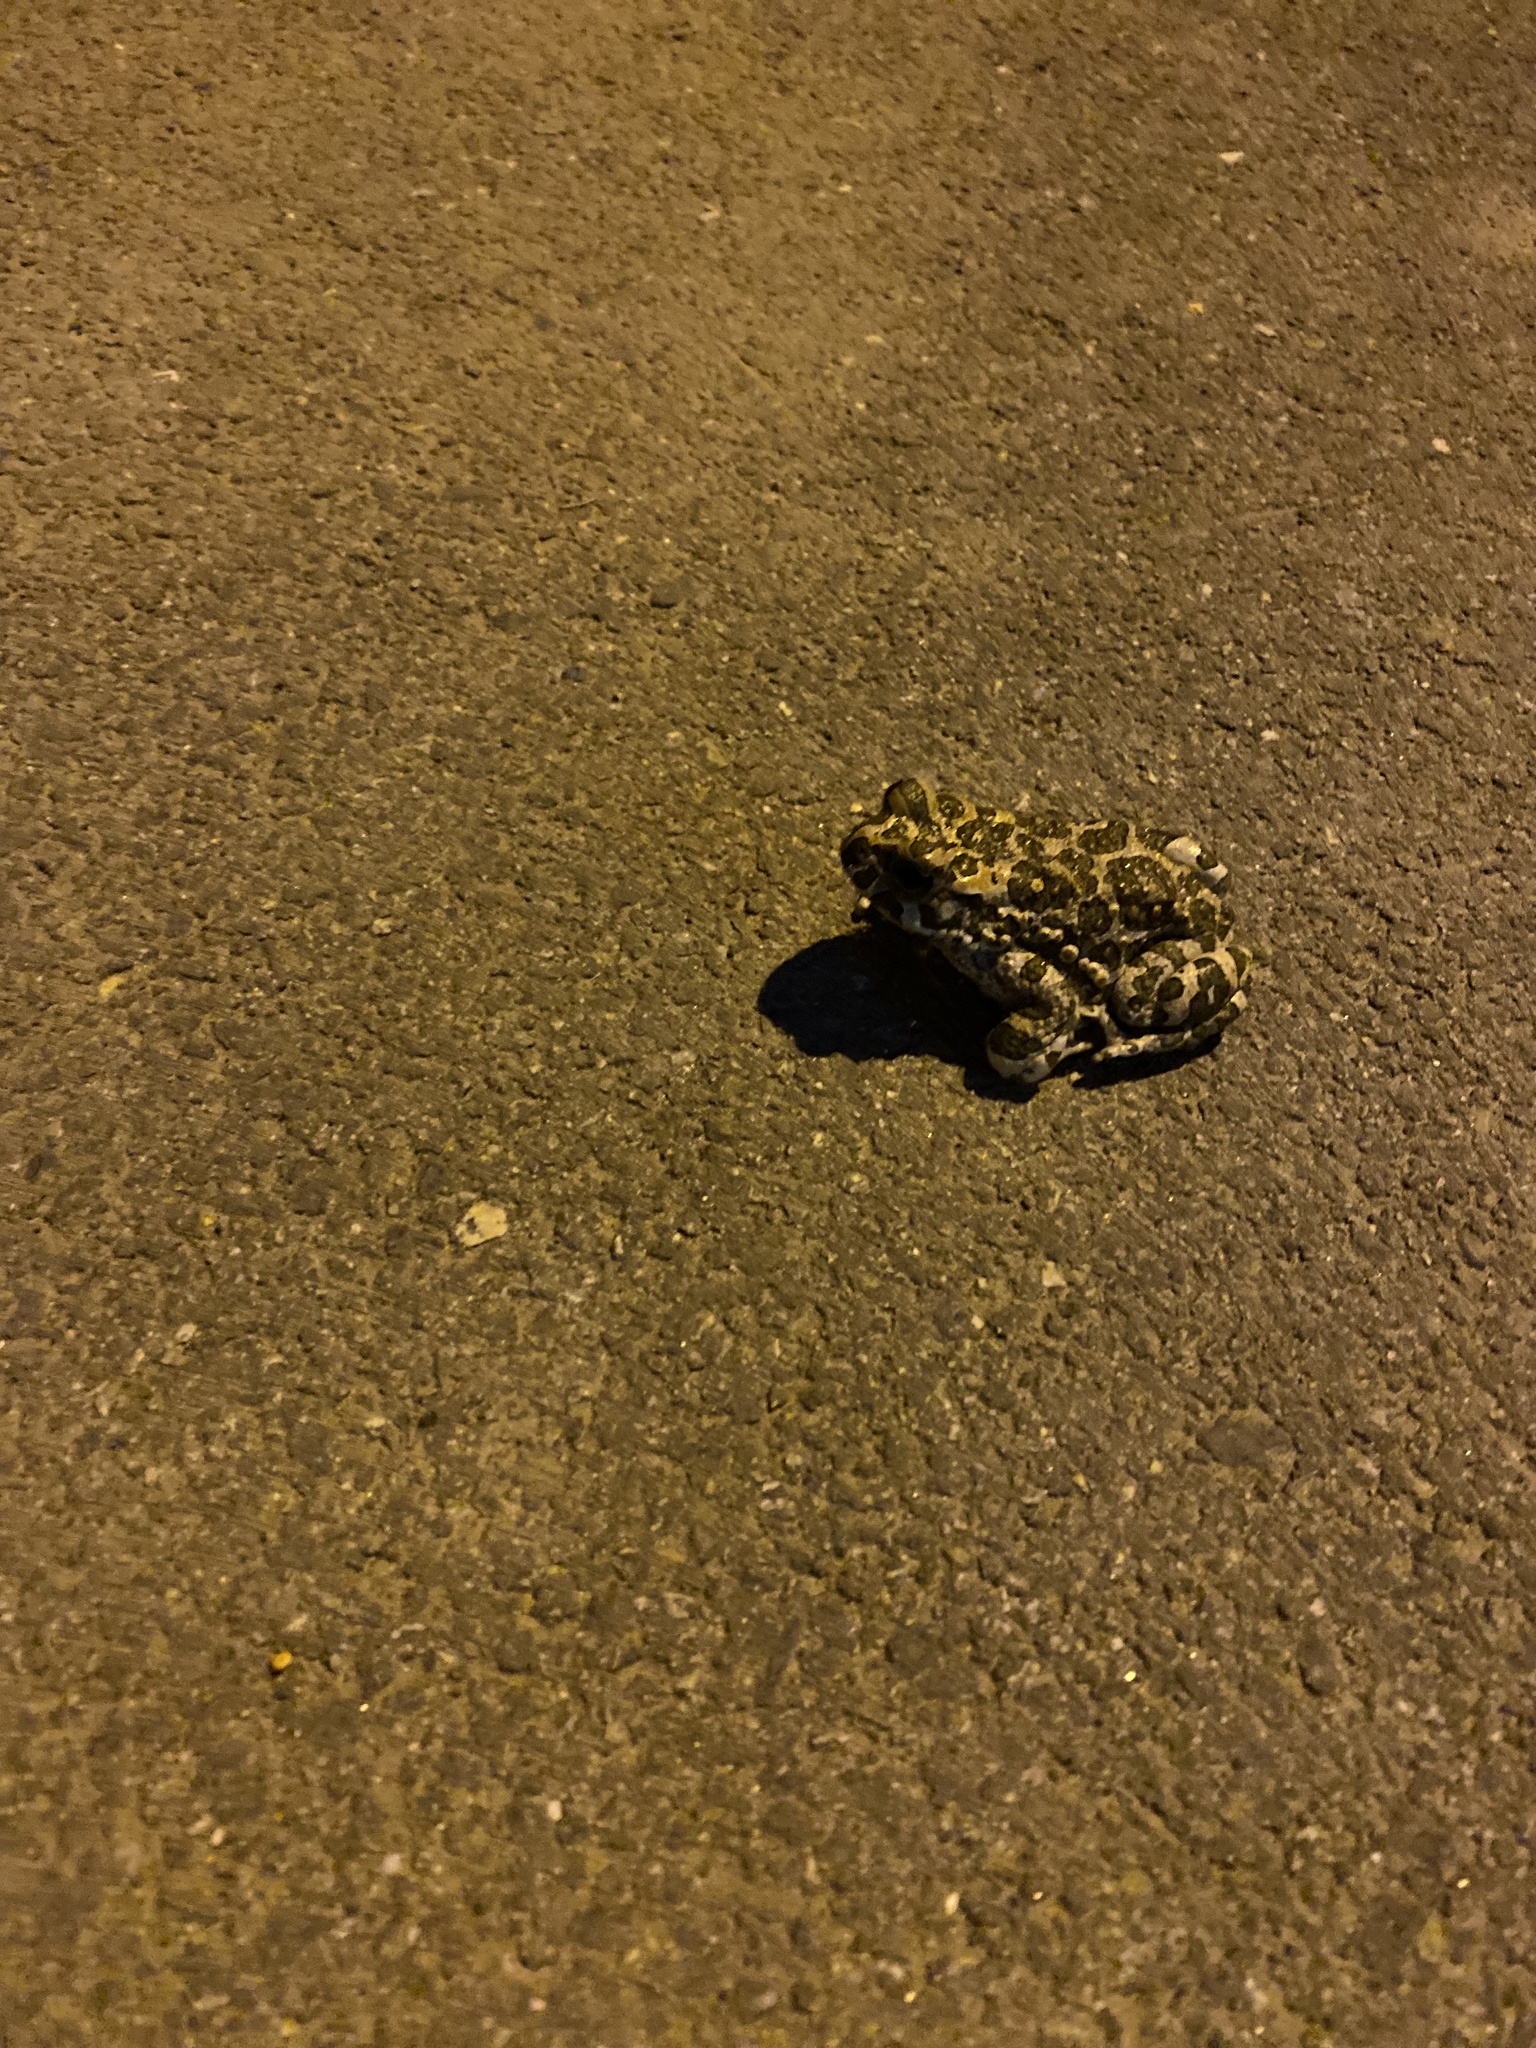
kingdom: Animalia
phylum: Chordata
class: Amphibia
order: Anura
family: Bufonidae
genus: Bufotes
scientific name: Bufotes viridis
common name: European green toad
